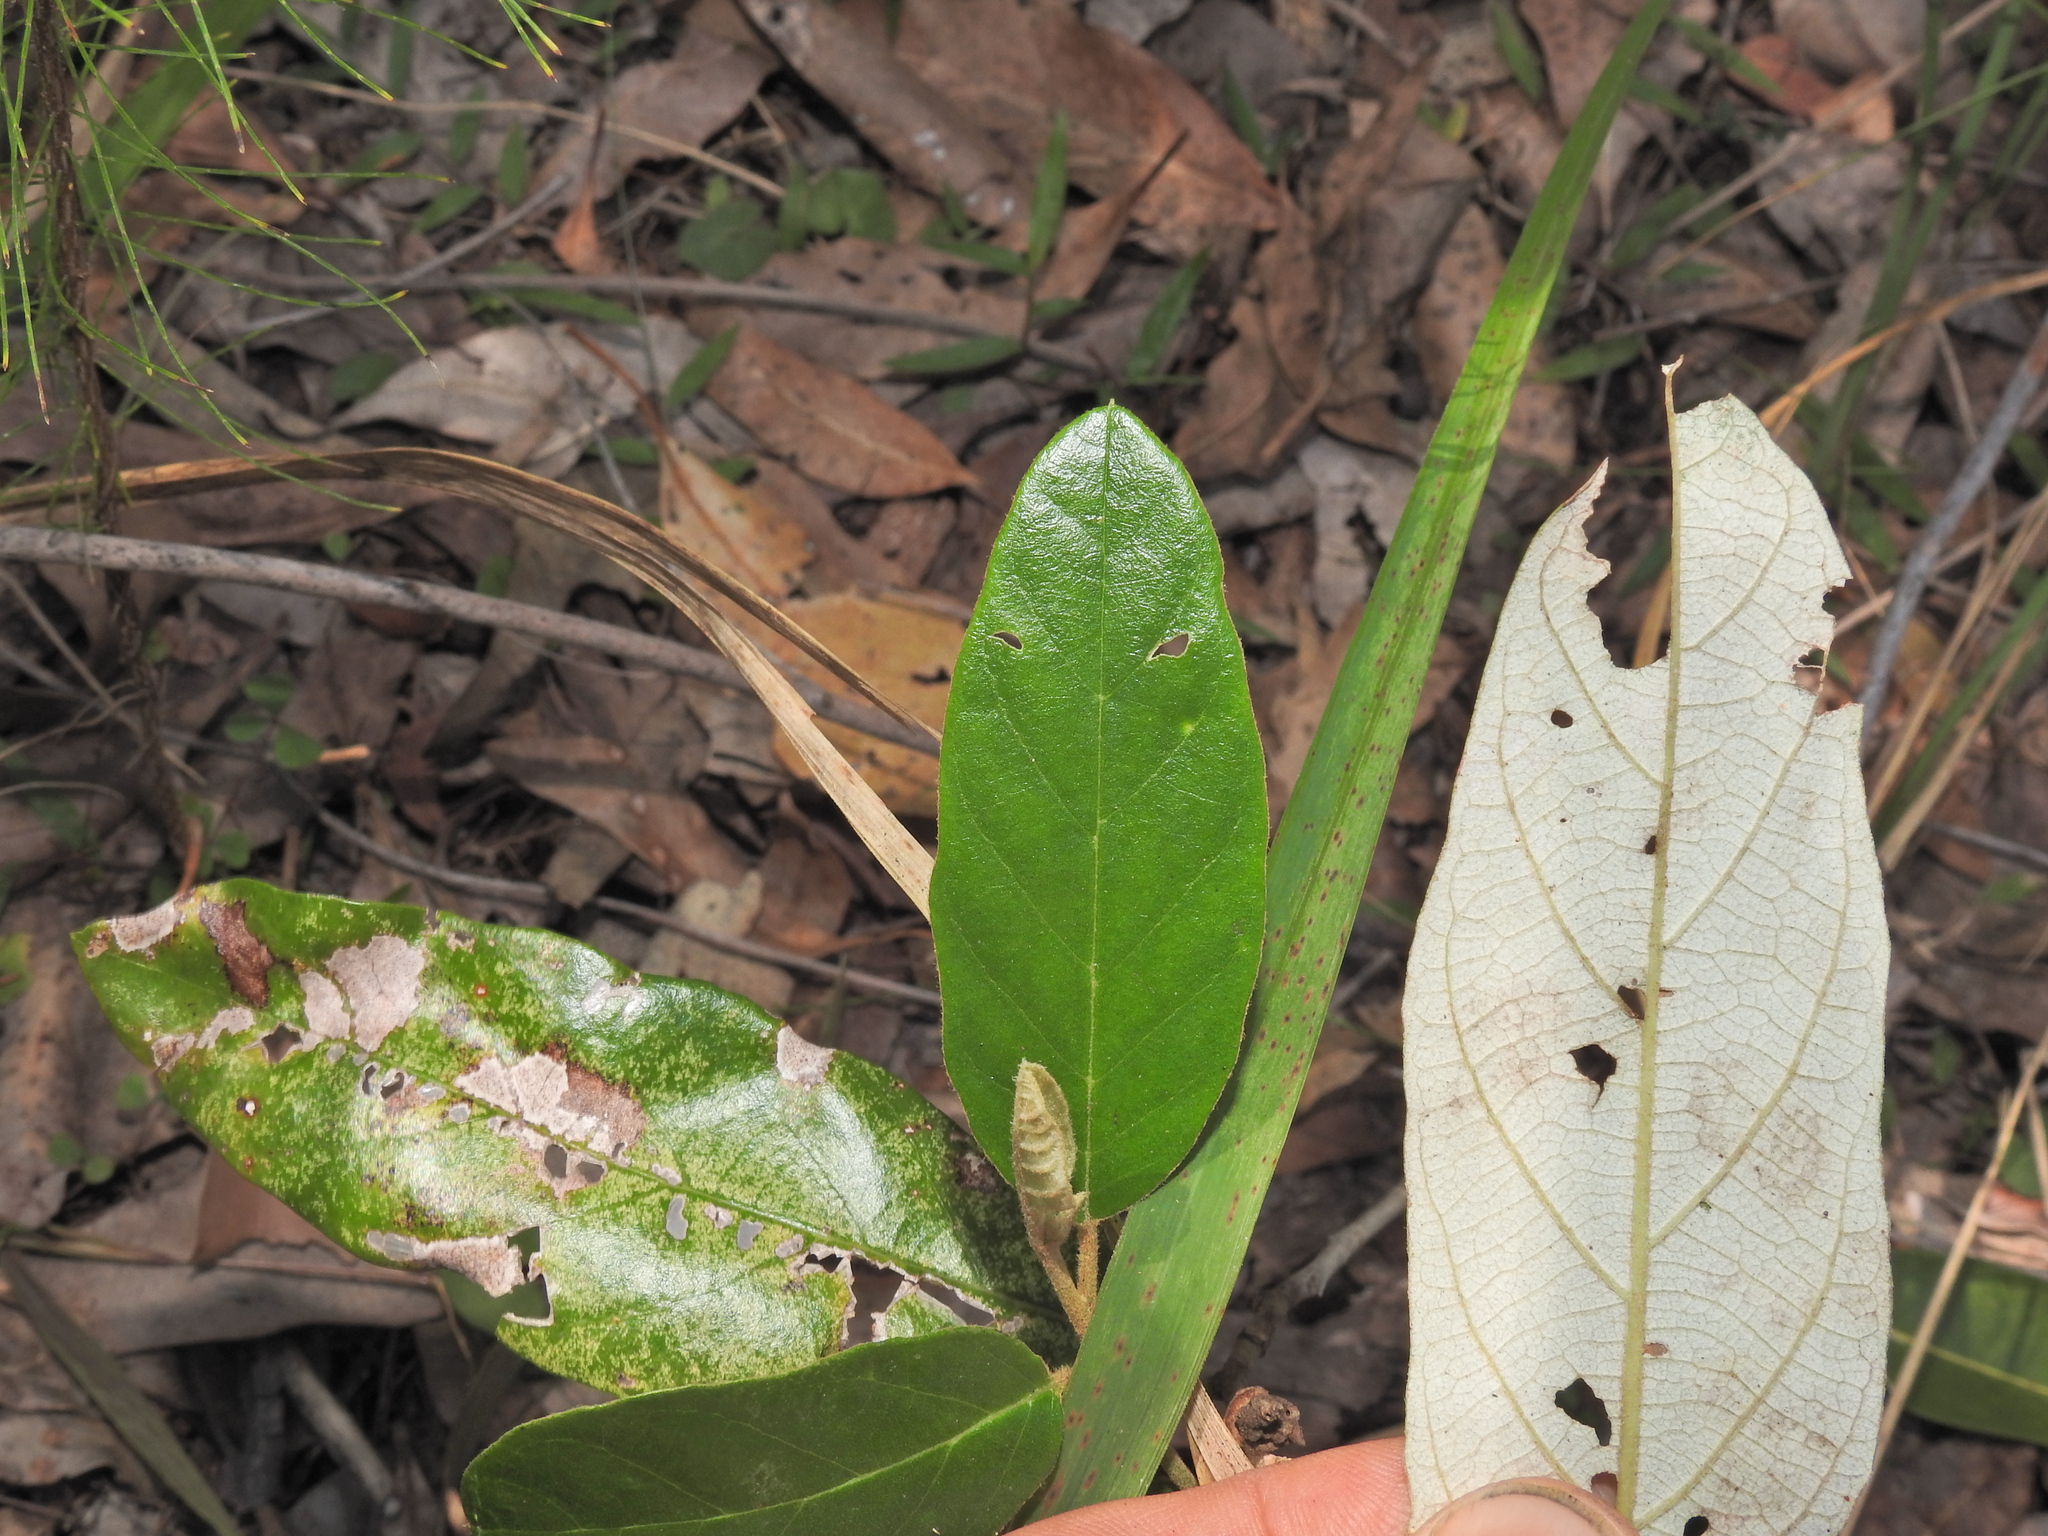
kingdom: Plantae
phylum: Tracheophyta
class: Magnoliopsida
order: Rosales
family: Rhamnaceae
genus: Alphitonia
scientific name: Alphitonia excelsa
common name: Red ash
